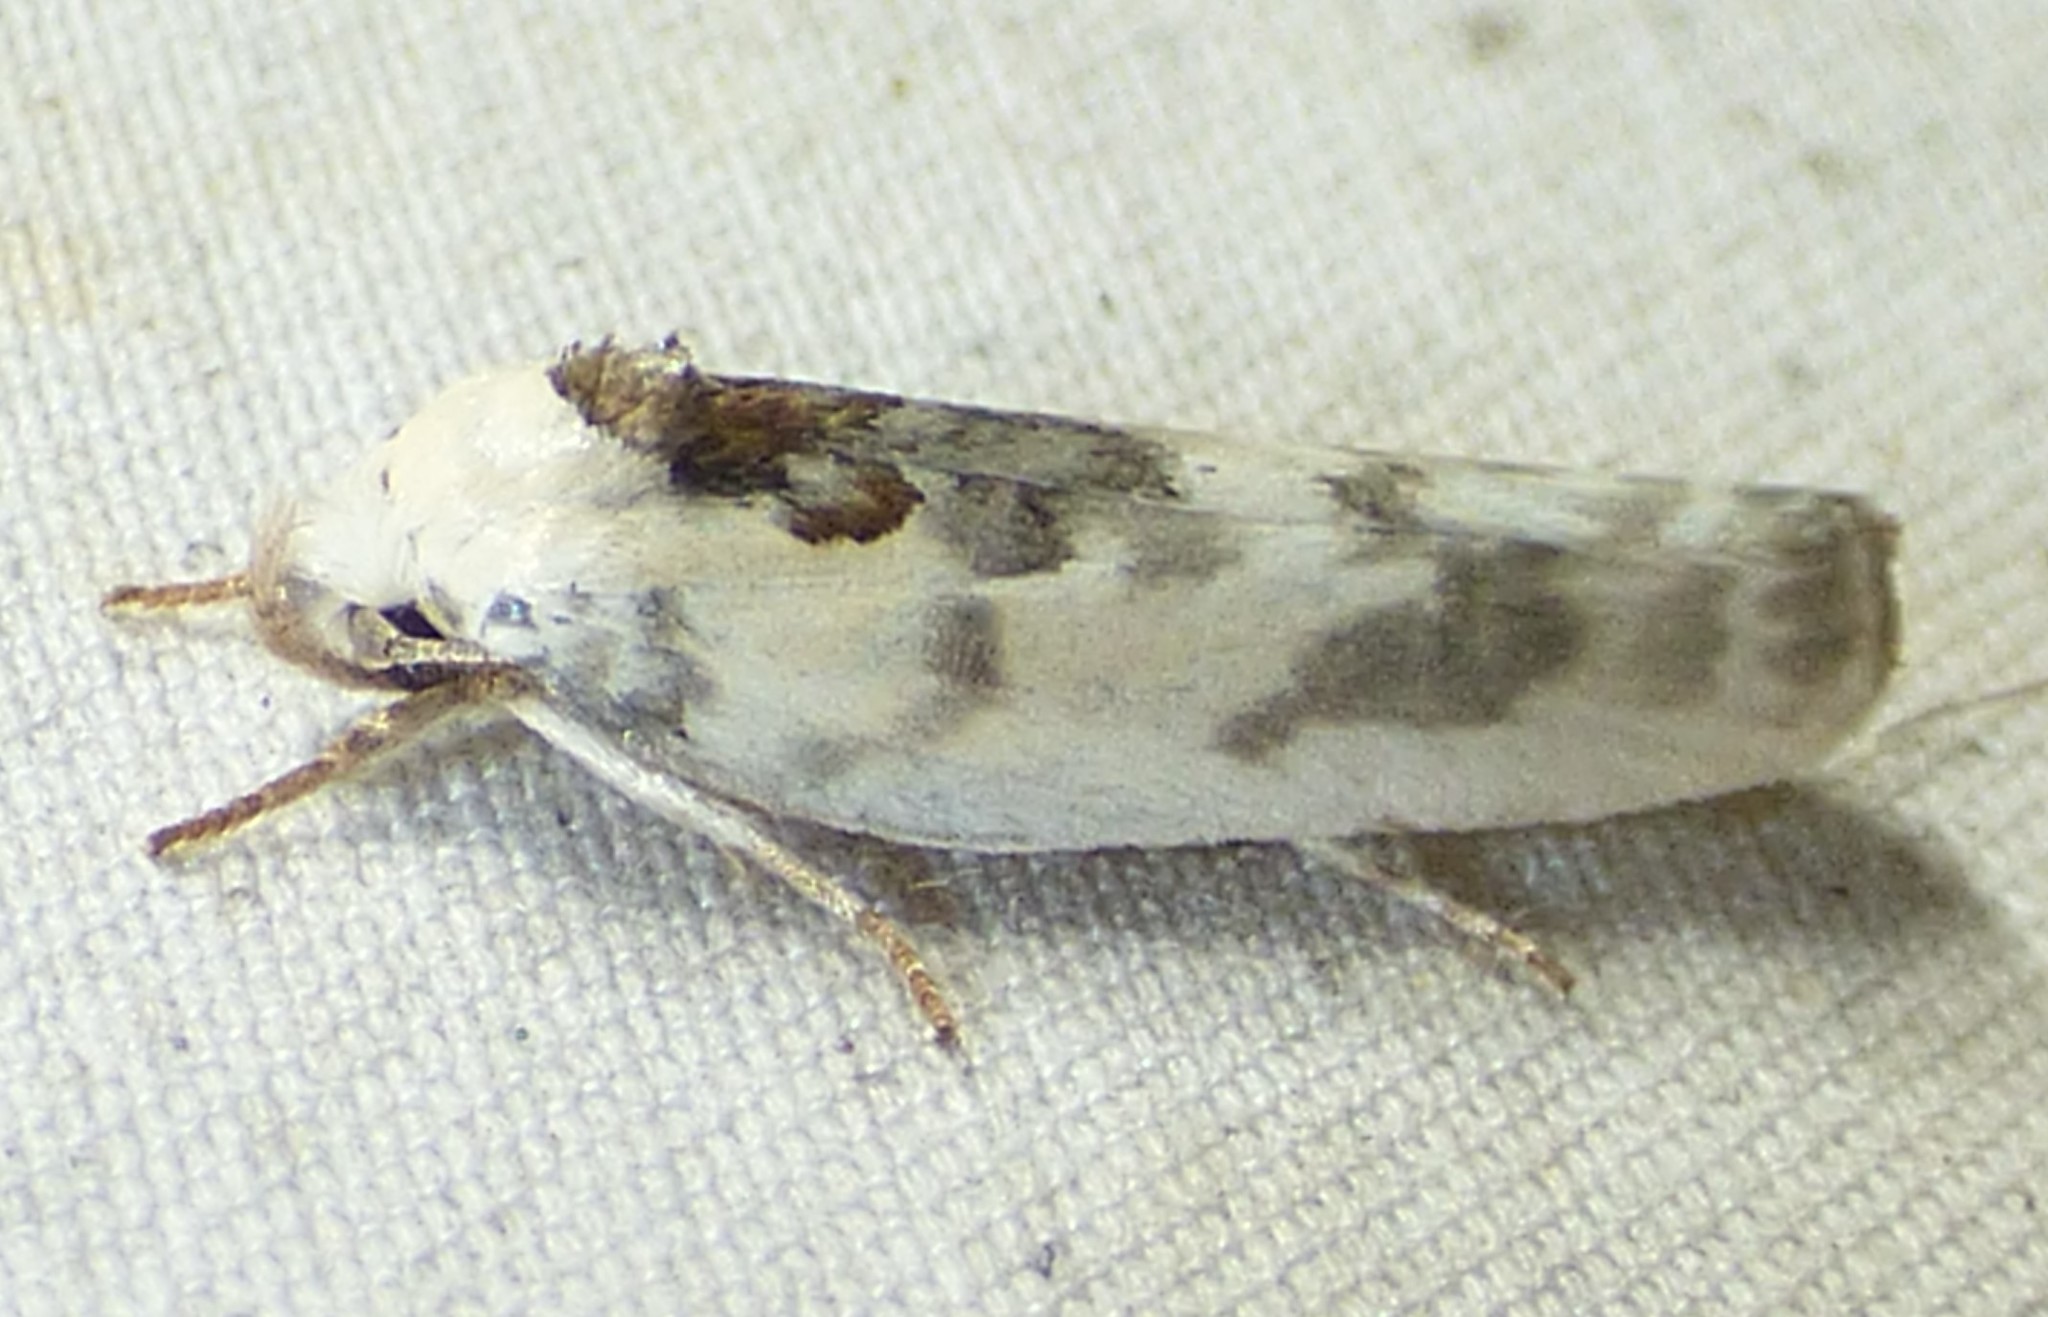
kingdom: Animalia
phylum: Arthropoda
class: Insecta
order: Lepidoptera
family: Depressariidae
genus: Antaeotricha
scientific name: Antaeotricha schlaegeri
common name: Schlaeger's fruitworm moth
